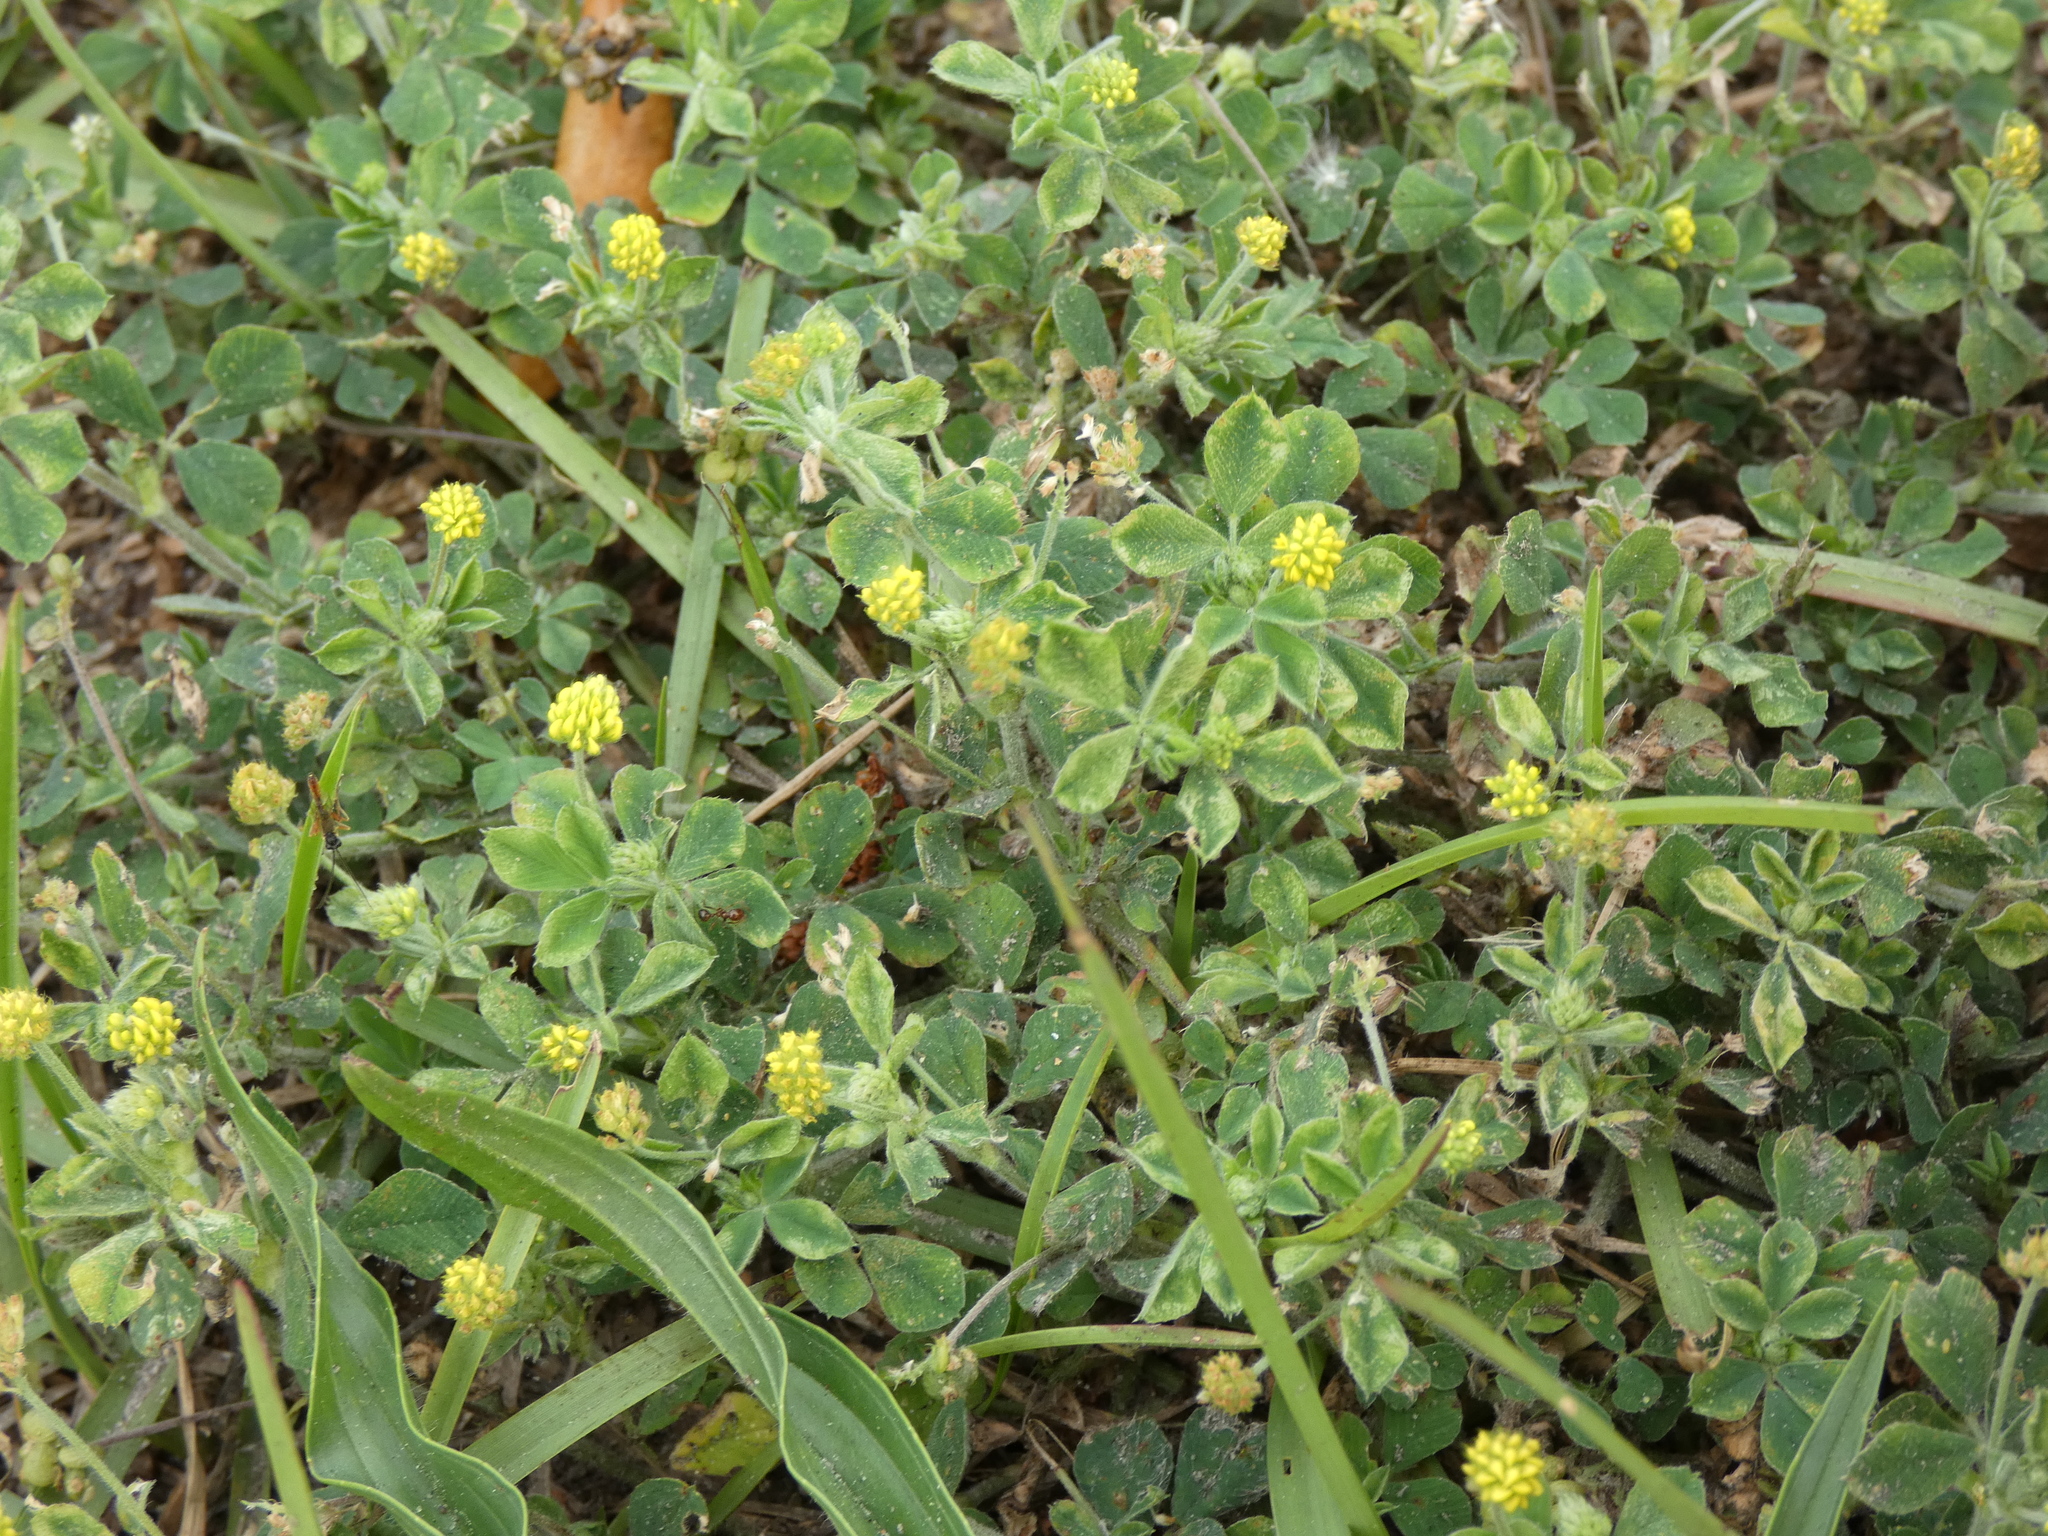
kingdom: Plantae
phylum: Tracheophyta
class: Magnoliopsida
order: Fabales
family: Fabaceae
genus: Medicago
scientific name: Medicago lupulina
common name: Black medick
